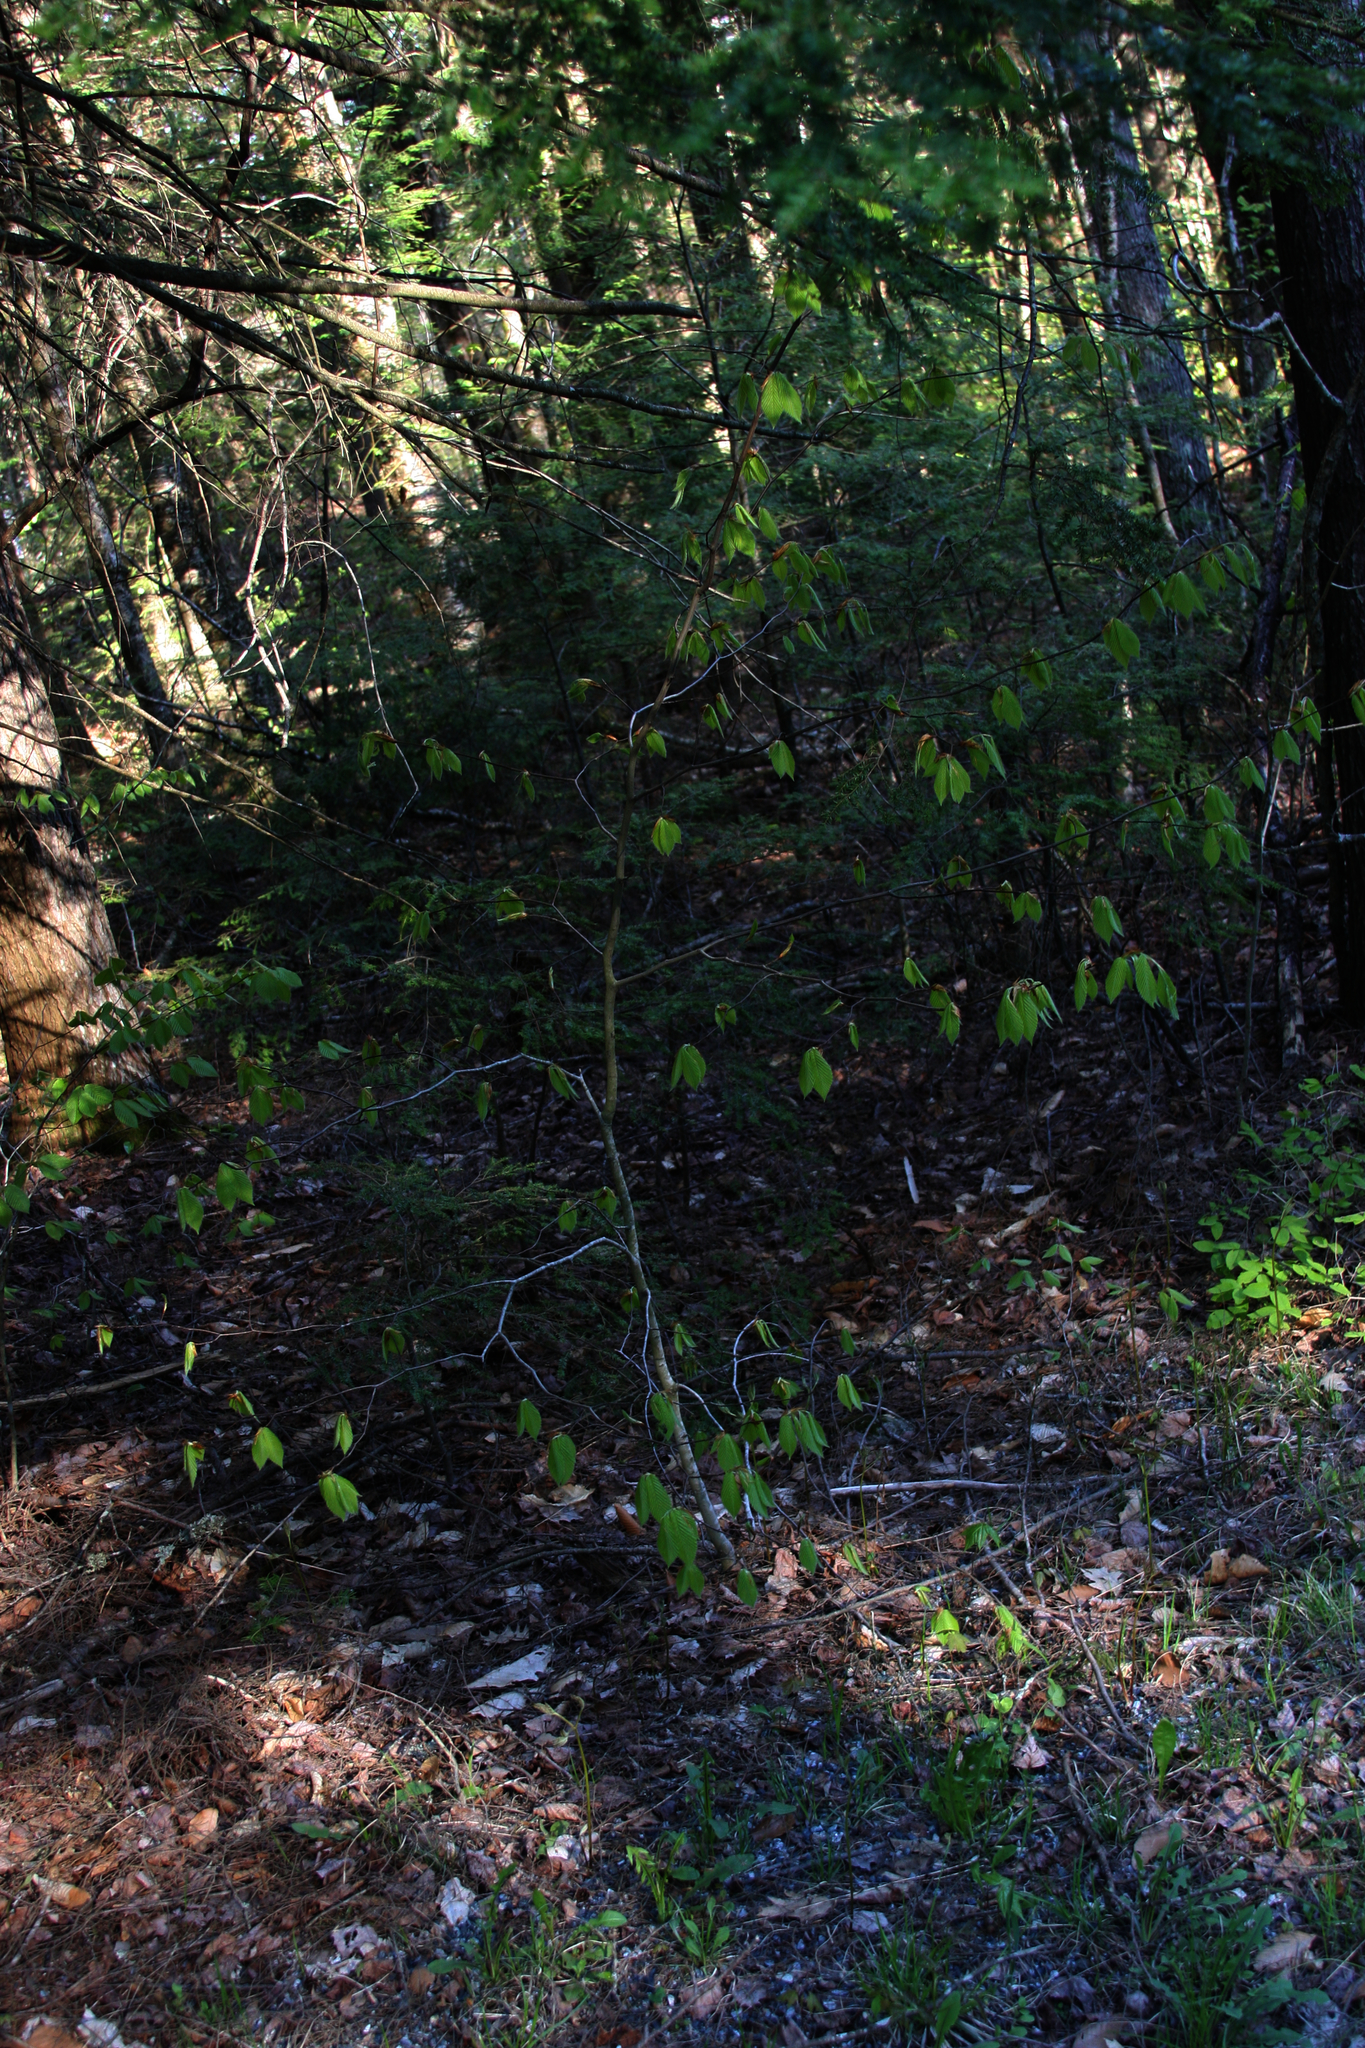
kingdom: Plantae
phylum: Tracheophyta
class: Magnoliopsida
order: Fagales
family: Fagaceae
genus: Fagus
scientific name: Fagus grandifolia
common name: American beech
